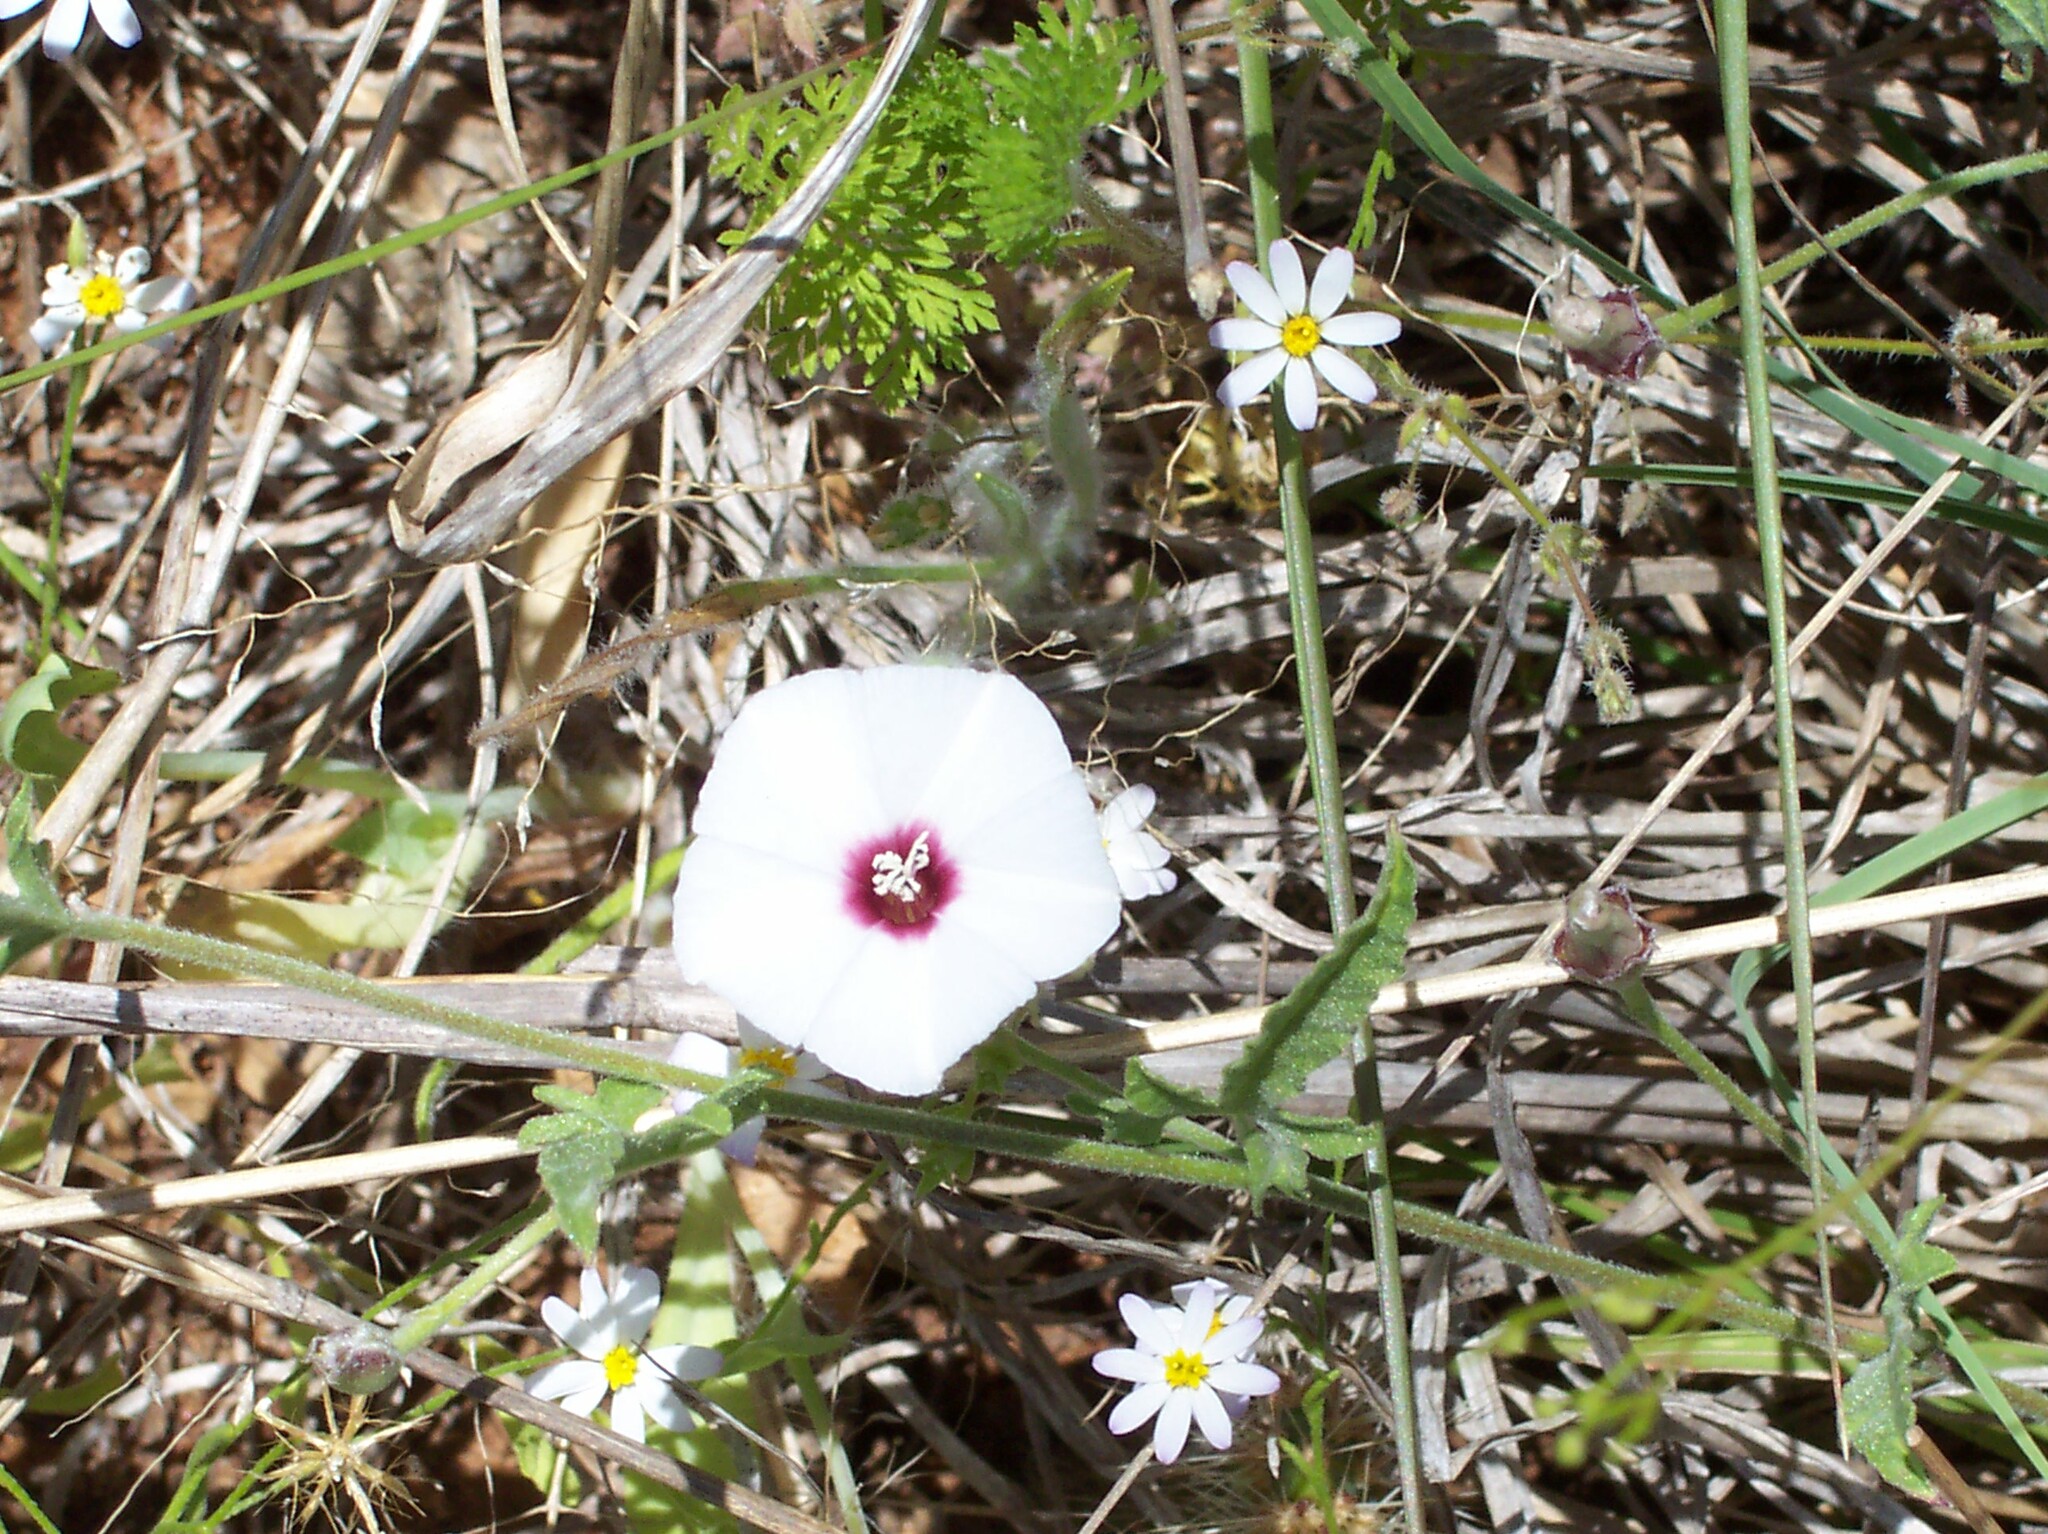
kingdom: Plantae
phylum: Tracheophyta
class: Magnoliopsida
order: Solanales
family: Convolvulaceae
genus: Convolvulus
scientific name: Convolvulus equitans
